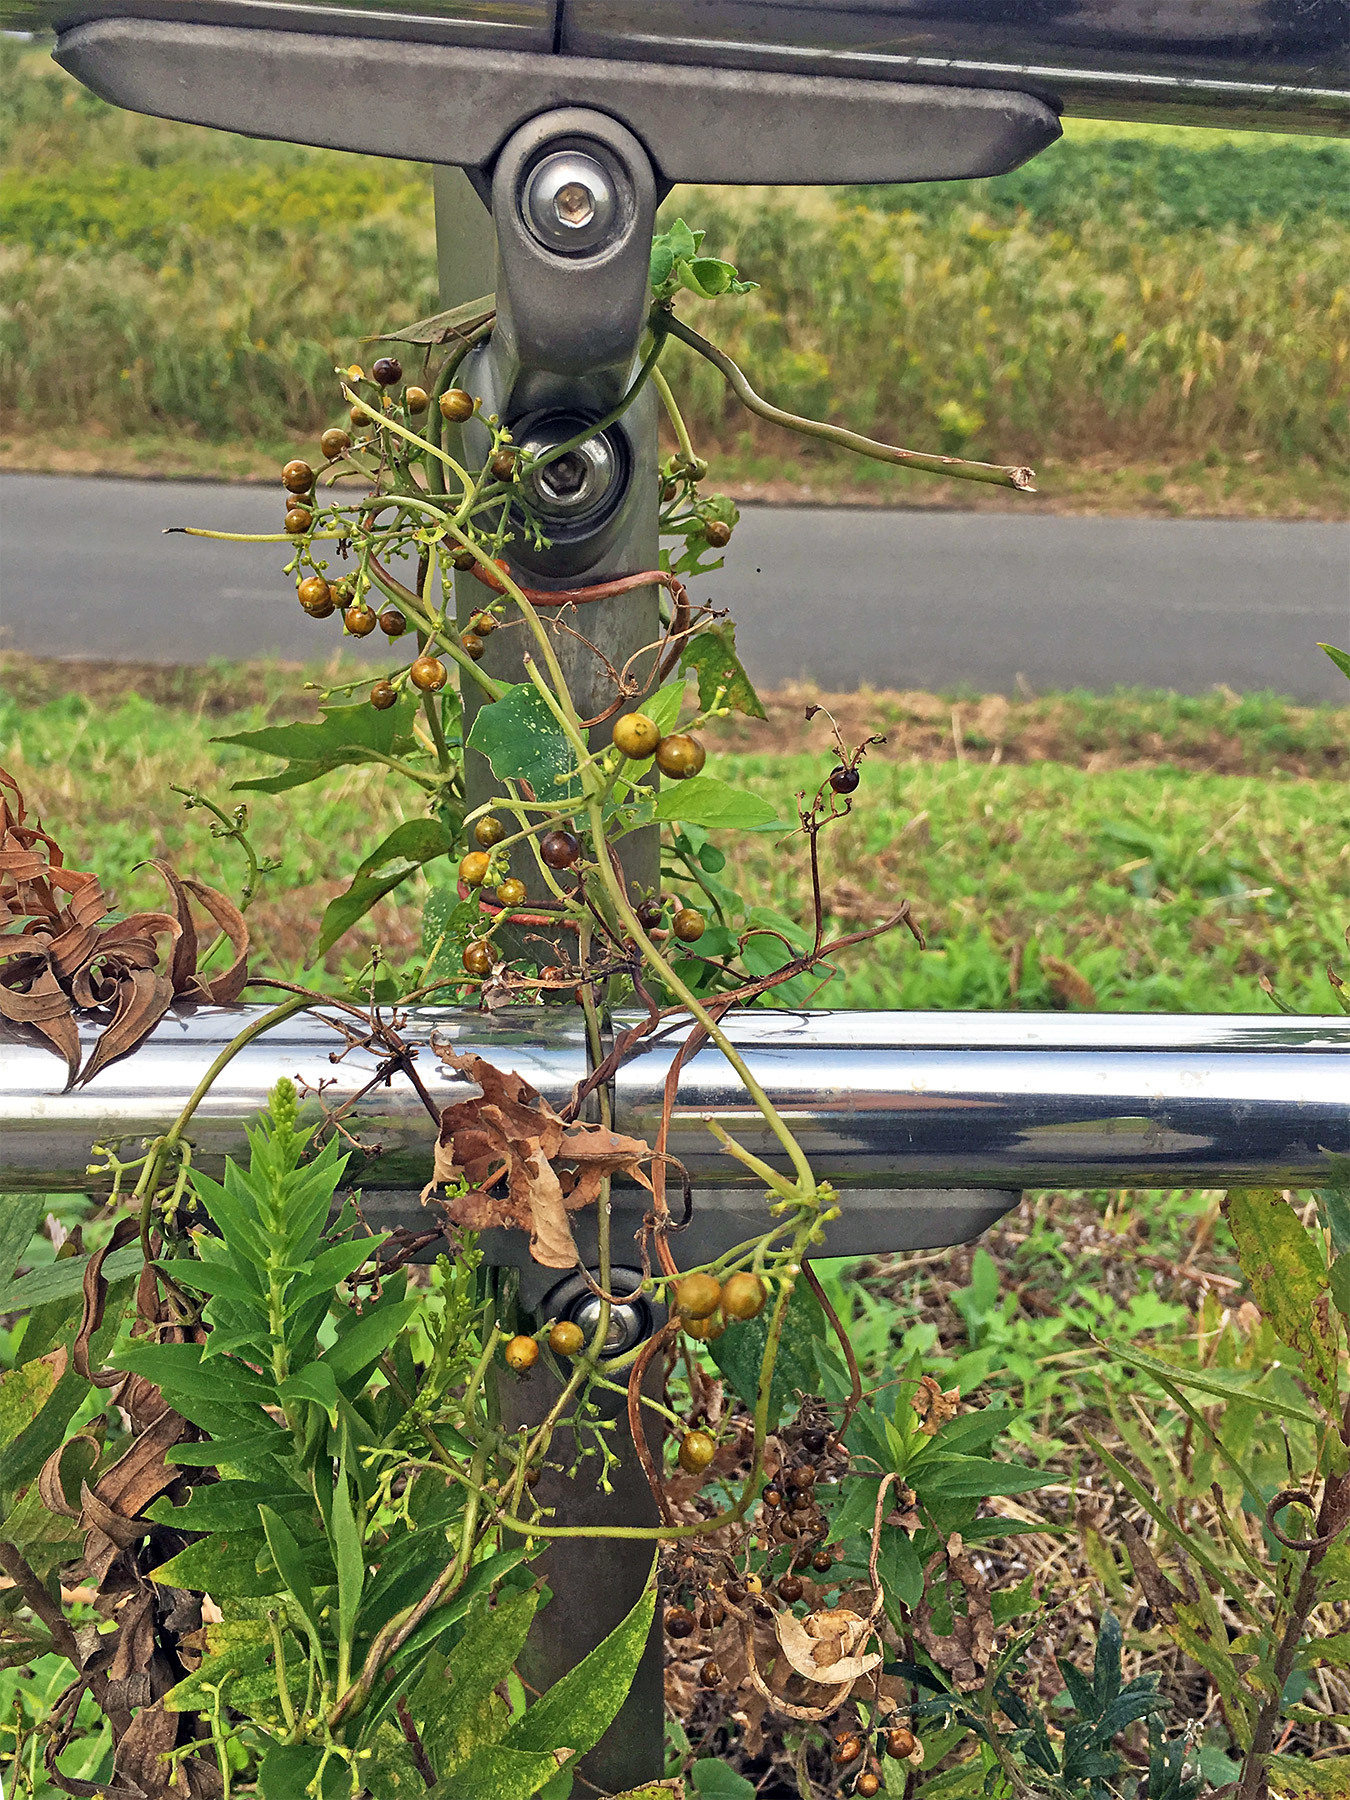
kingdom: Plantae
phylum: Tracheophyta
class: Magnoliopsida
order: Gentianales
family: Rubiaceae
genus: Paederia
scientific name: Paederia foetida
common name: Stinkvine
